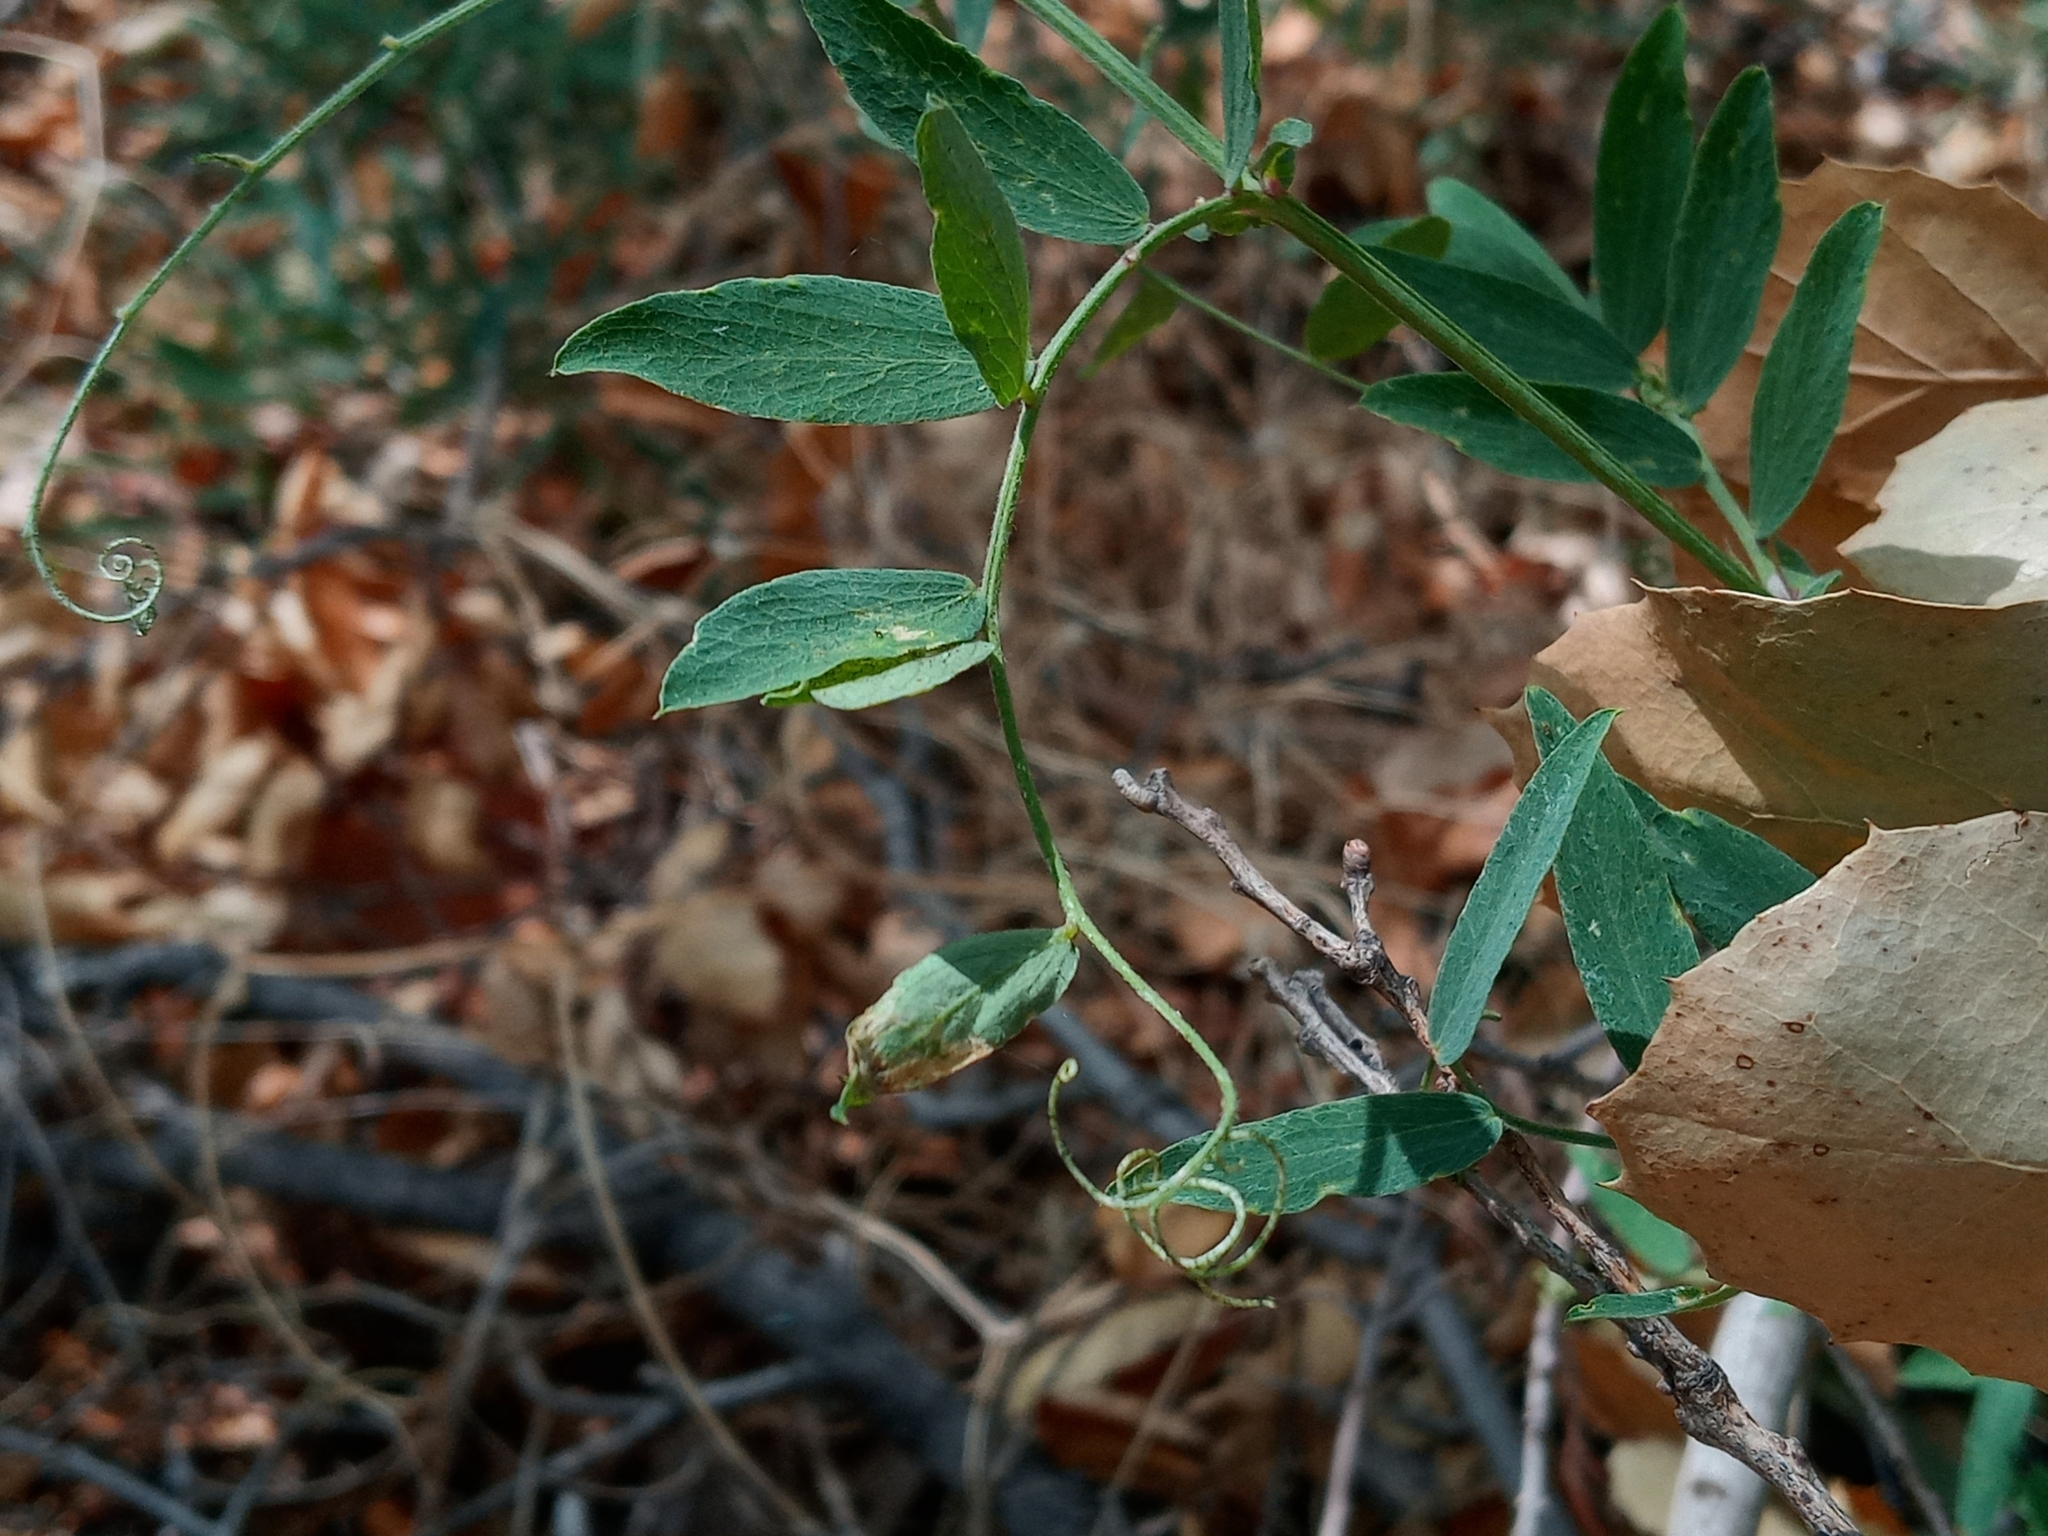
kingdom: Plantae
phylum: Tracheophyta
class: Magnoliopsida
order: Fabales
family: Fabaceae
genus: Lathyrus
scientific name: Lathyrus vestitus
